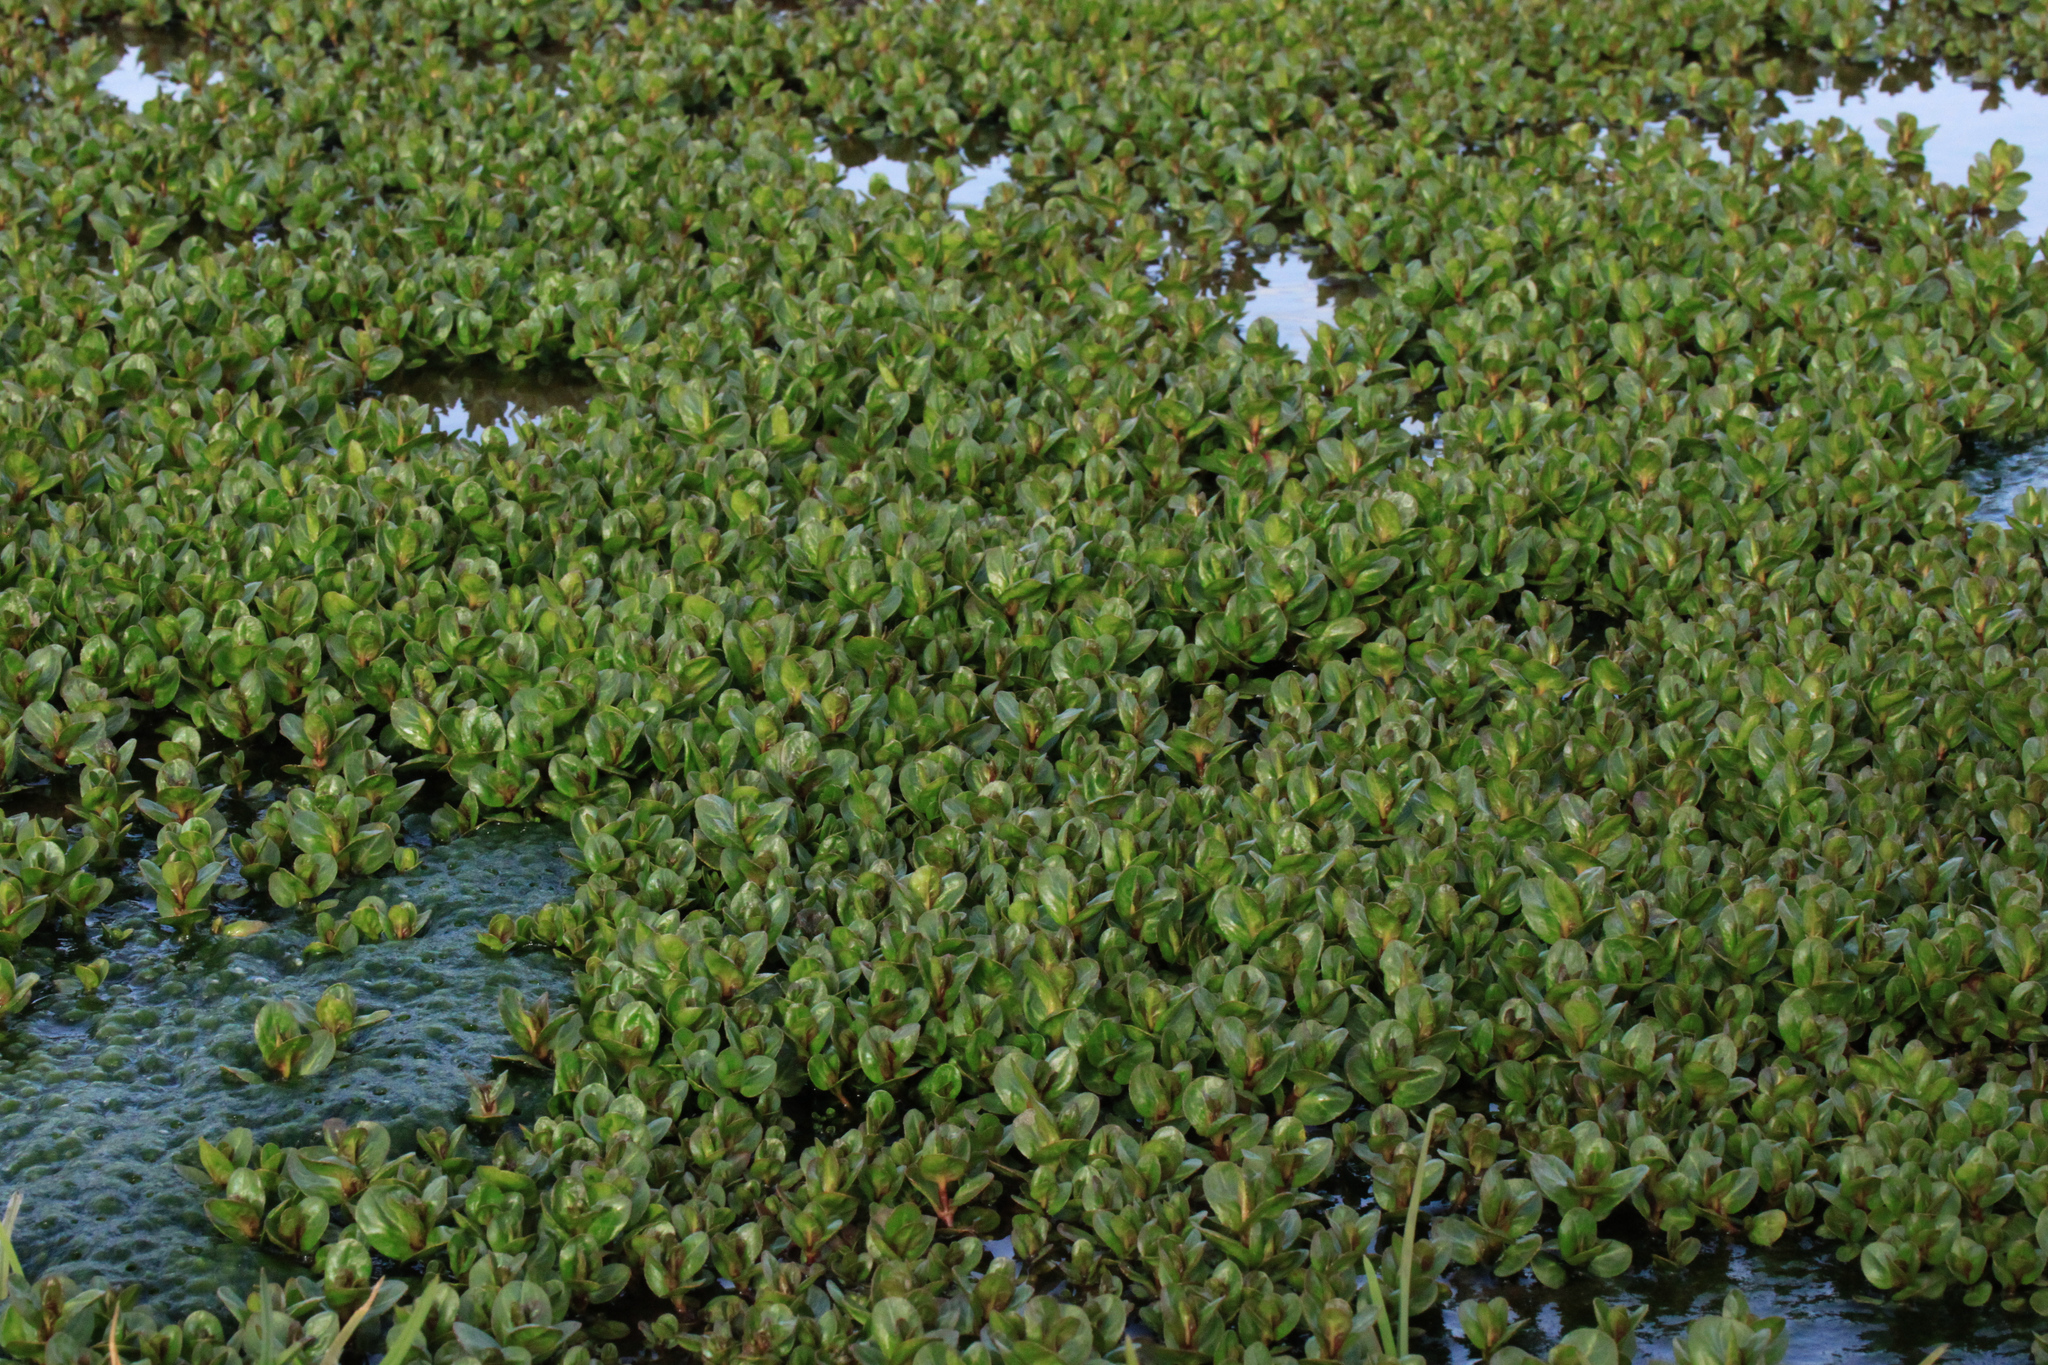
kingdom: Plantae
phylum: Tracheophyta
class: Magnoliopsida
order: Lamiales
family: Plantaginaceae
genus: Veronica
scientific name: Veronica beccabunga
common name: Brooklime
